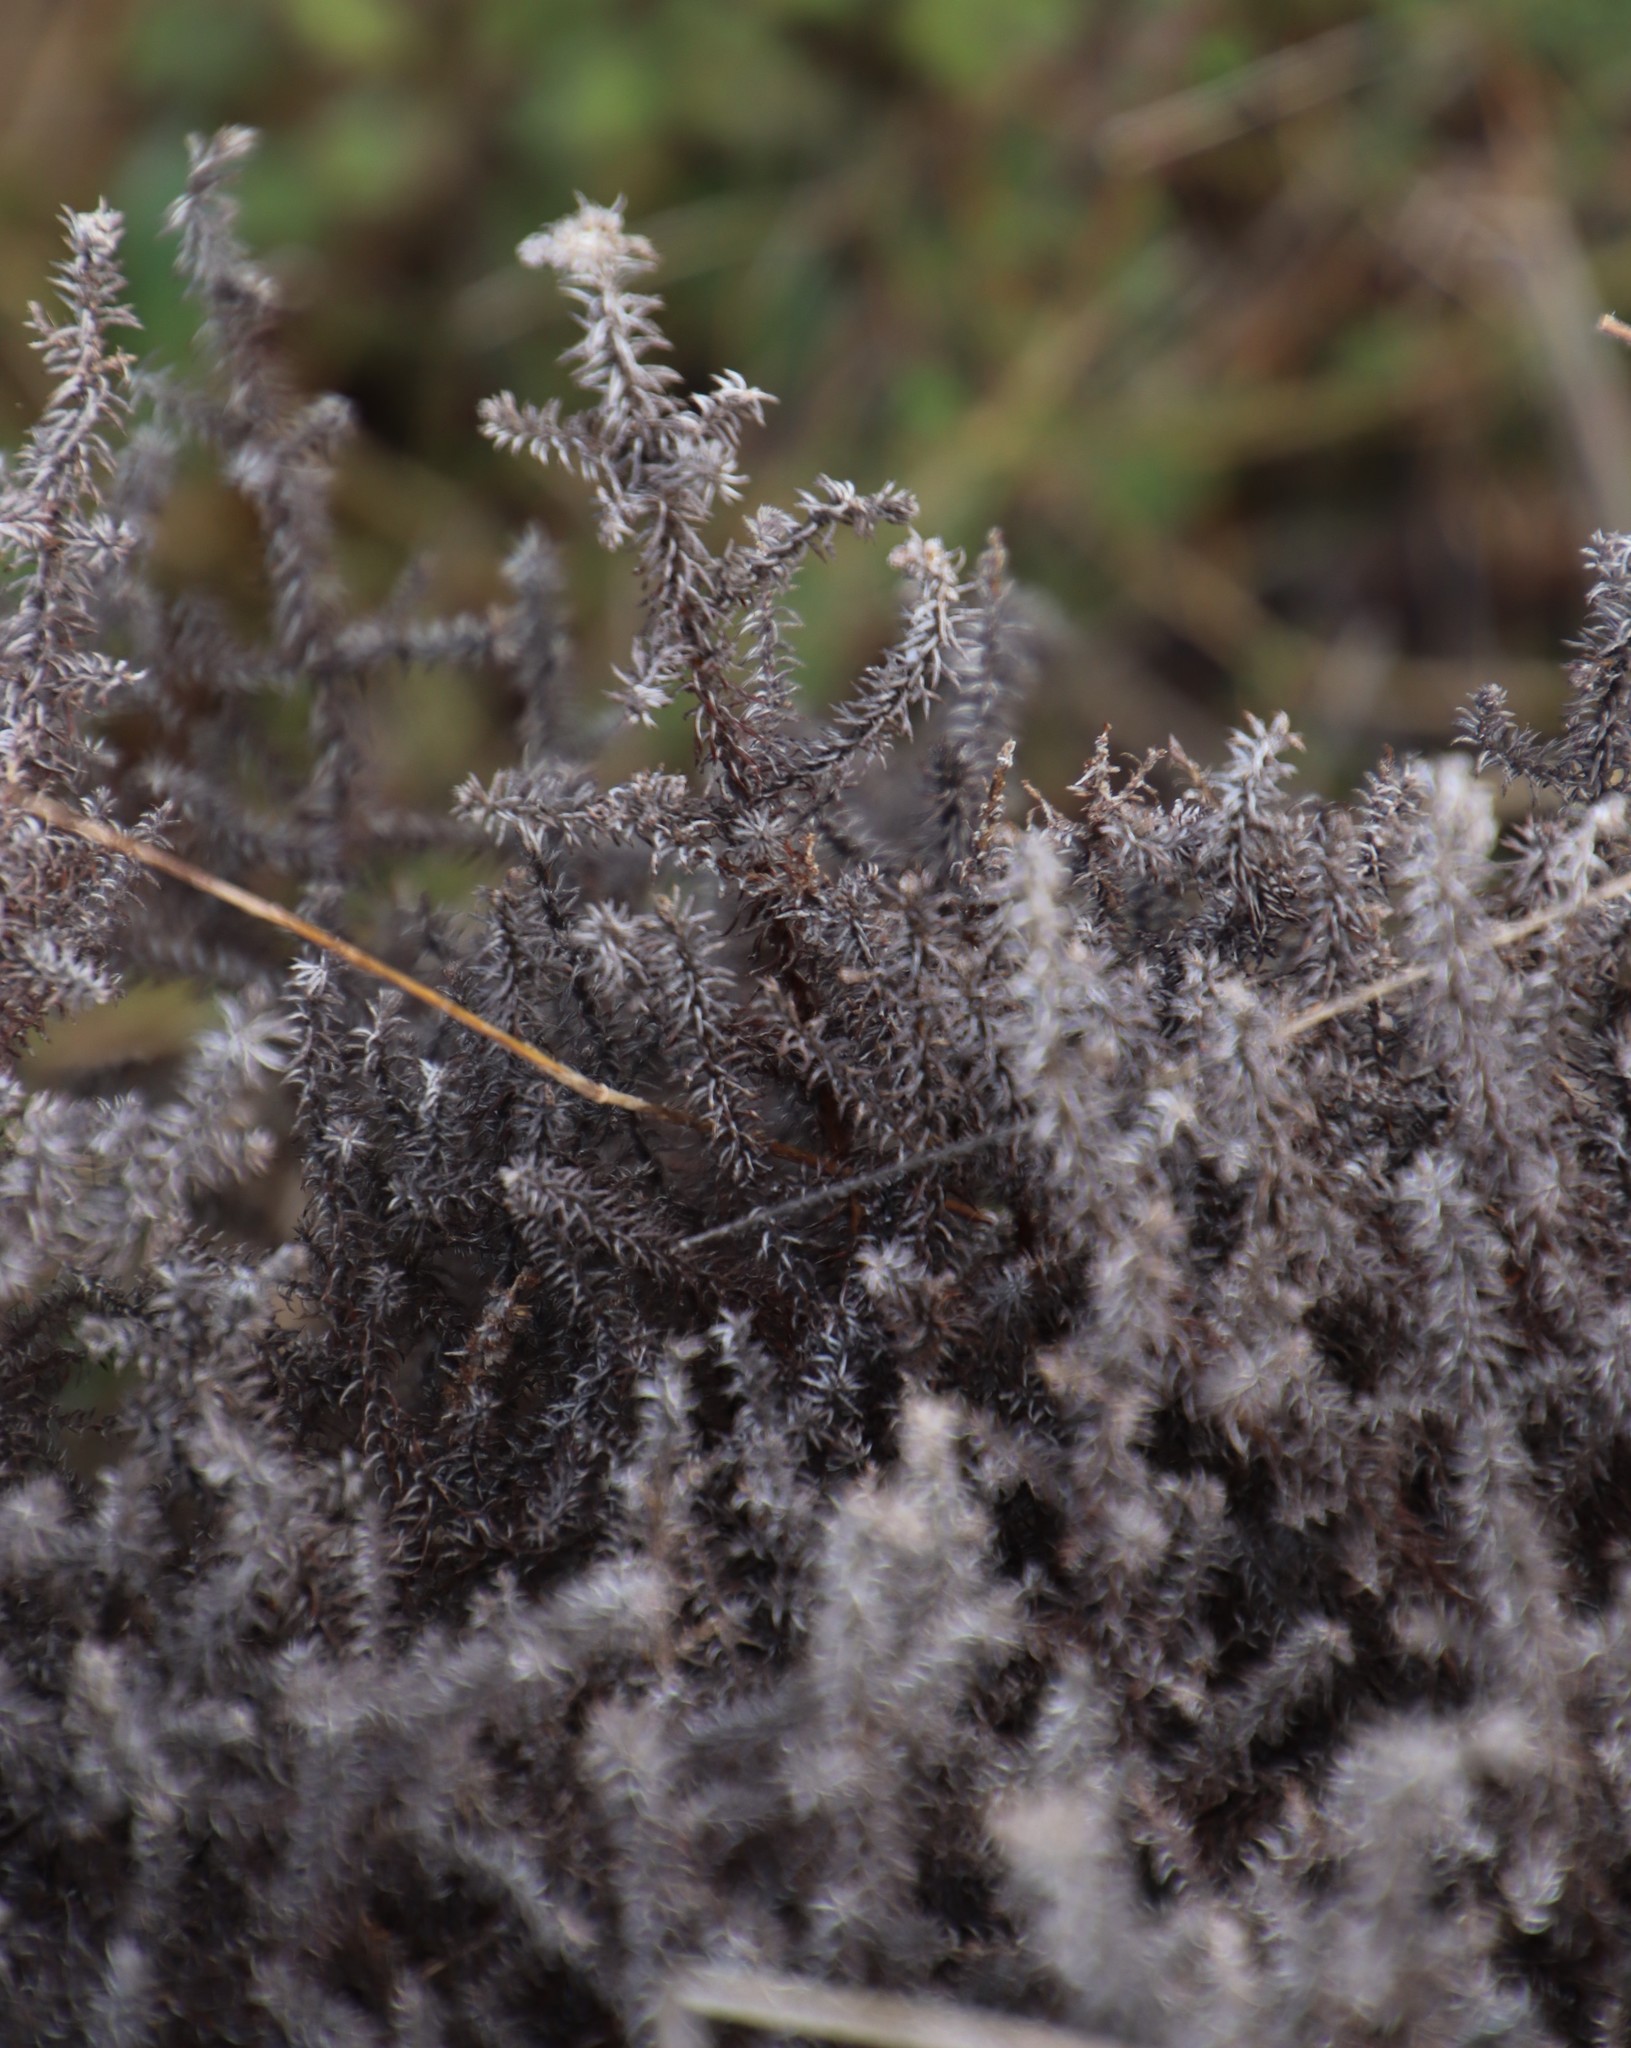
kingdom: Plantae
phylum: Tracheophyta
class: Magnoliopsida
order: Asterales
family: Asteraceae
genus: Seriphium
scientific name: Seriphium cinereum
